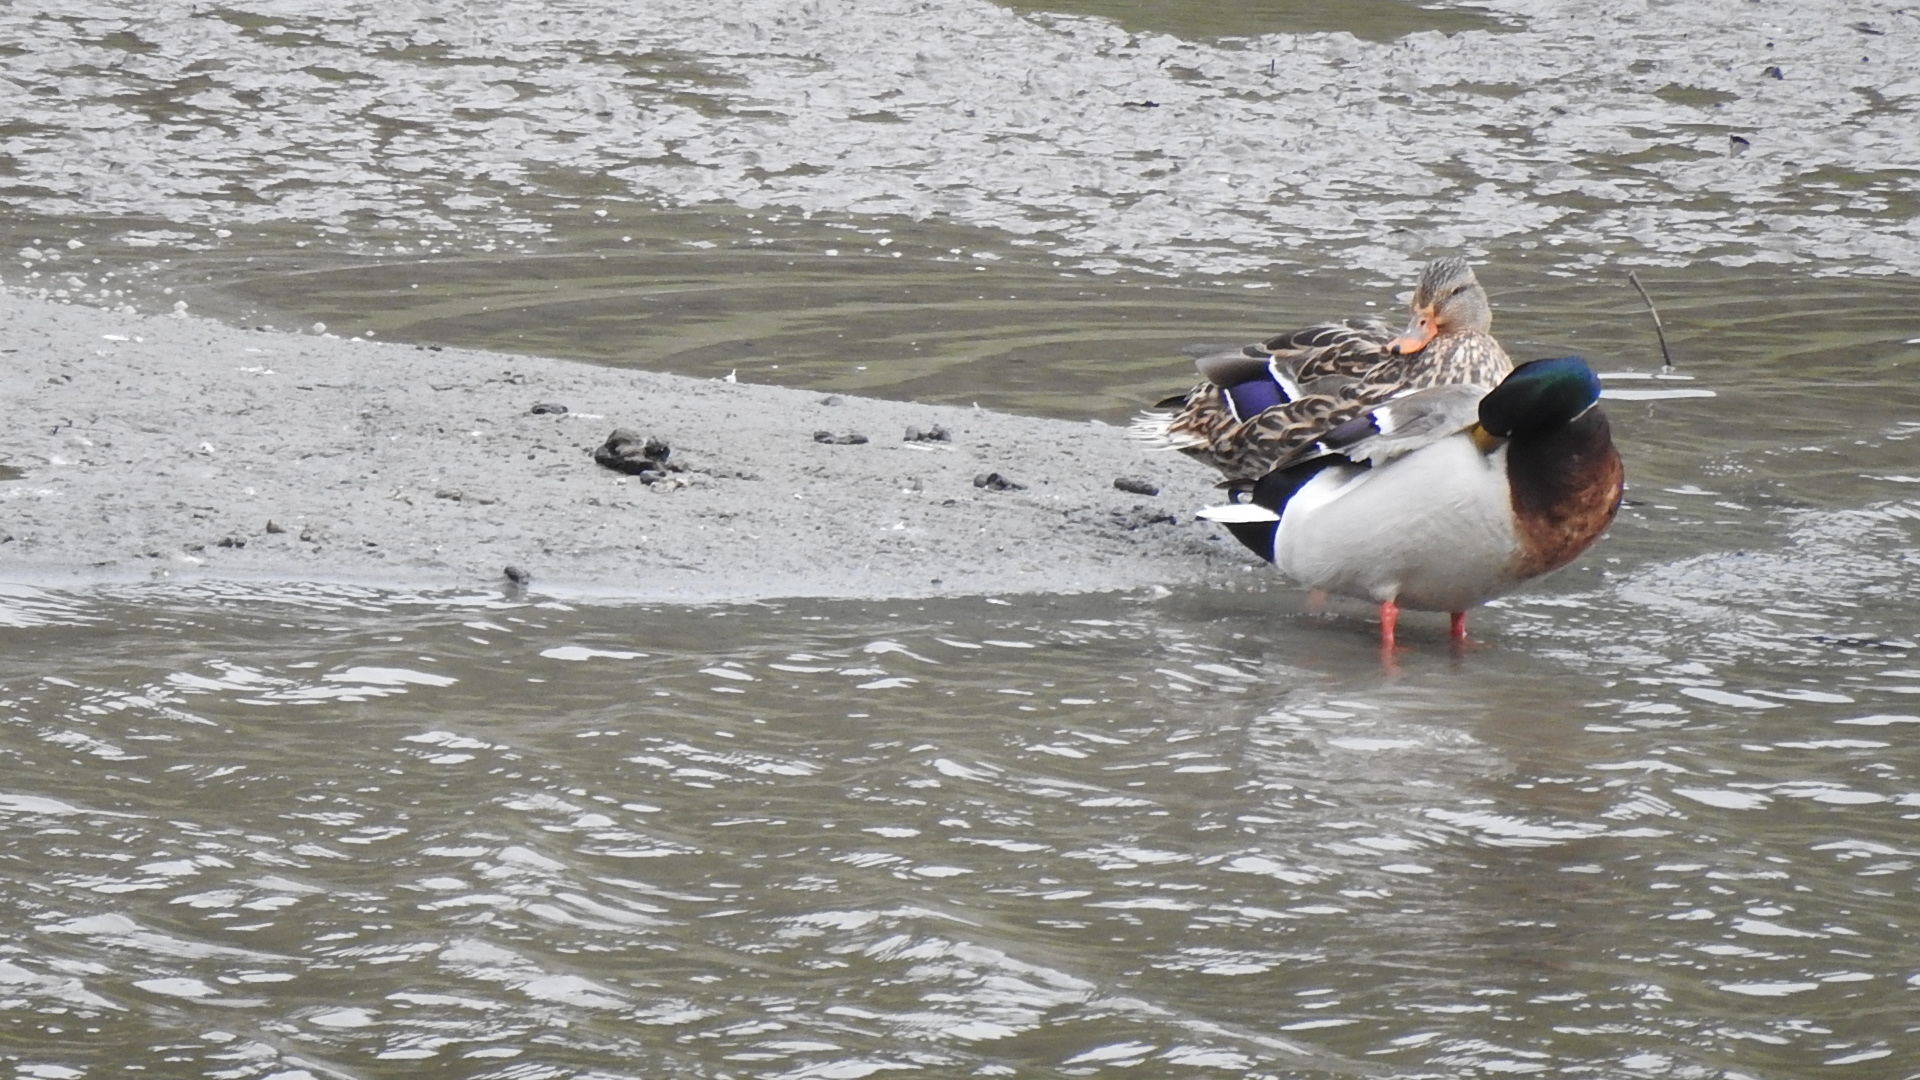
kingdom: Animalia
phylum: Chordata
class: Aves
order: Anseriformes
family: Anatidae
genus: Anas
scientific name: Anas platyrhynchos
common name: Mallard
